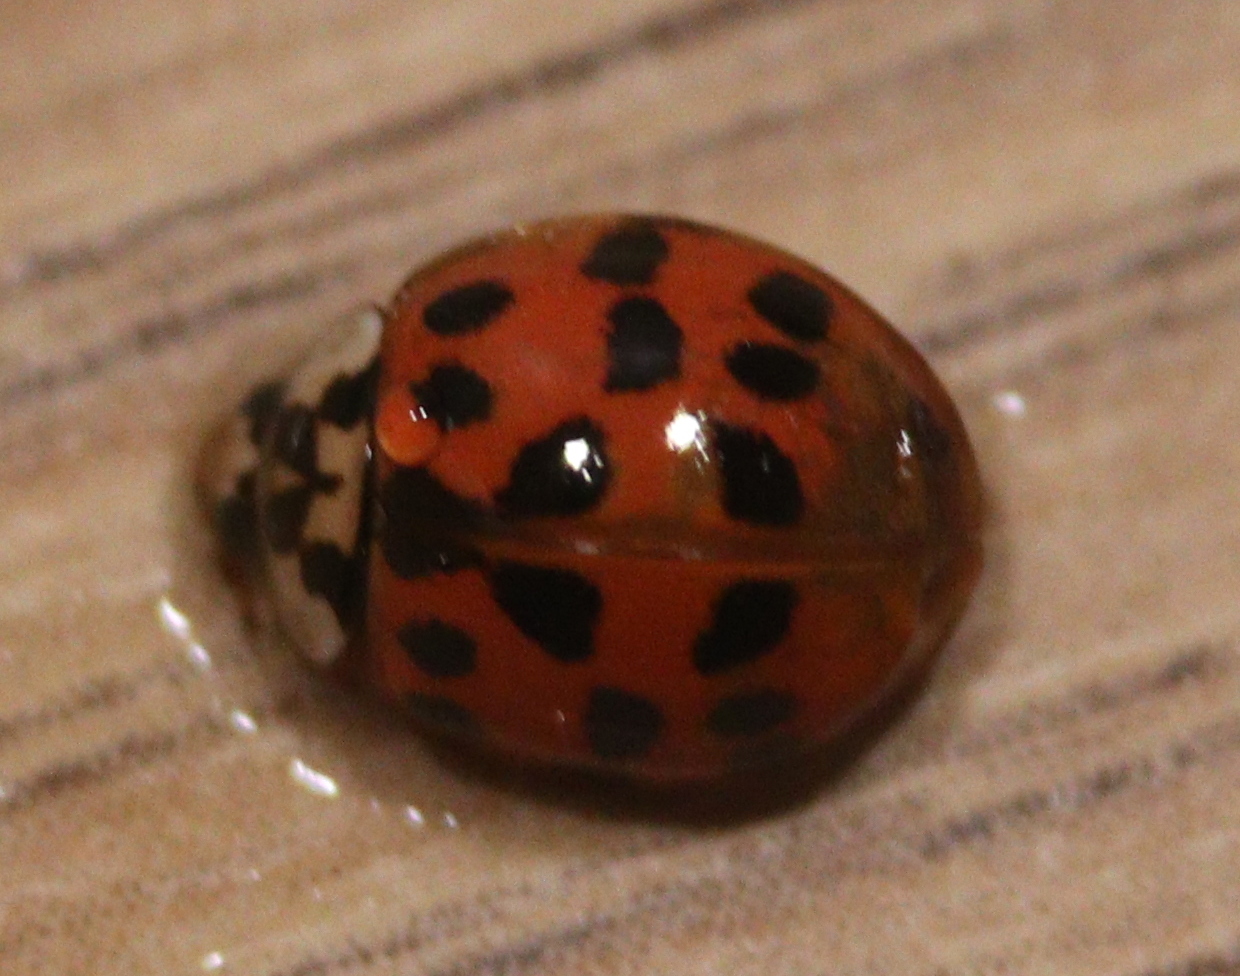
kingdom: Animalia
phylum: Arthropoda
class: Insecta
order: Coleoptera
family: Coccinellidae
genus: Harmonia
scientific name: Harmonia axyridis
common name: Harlequin ladybird
